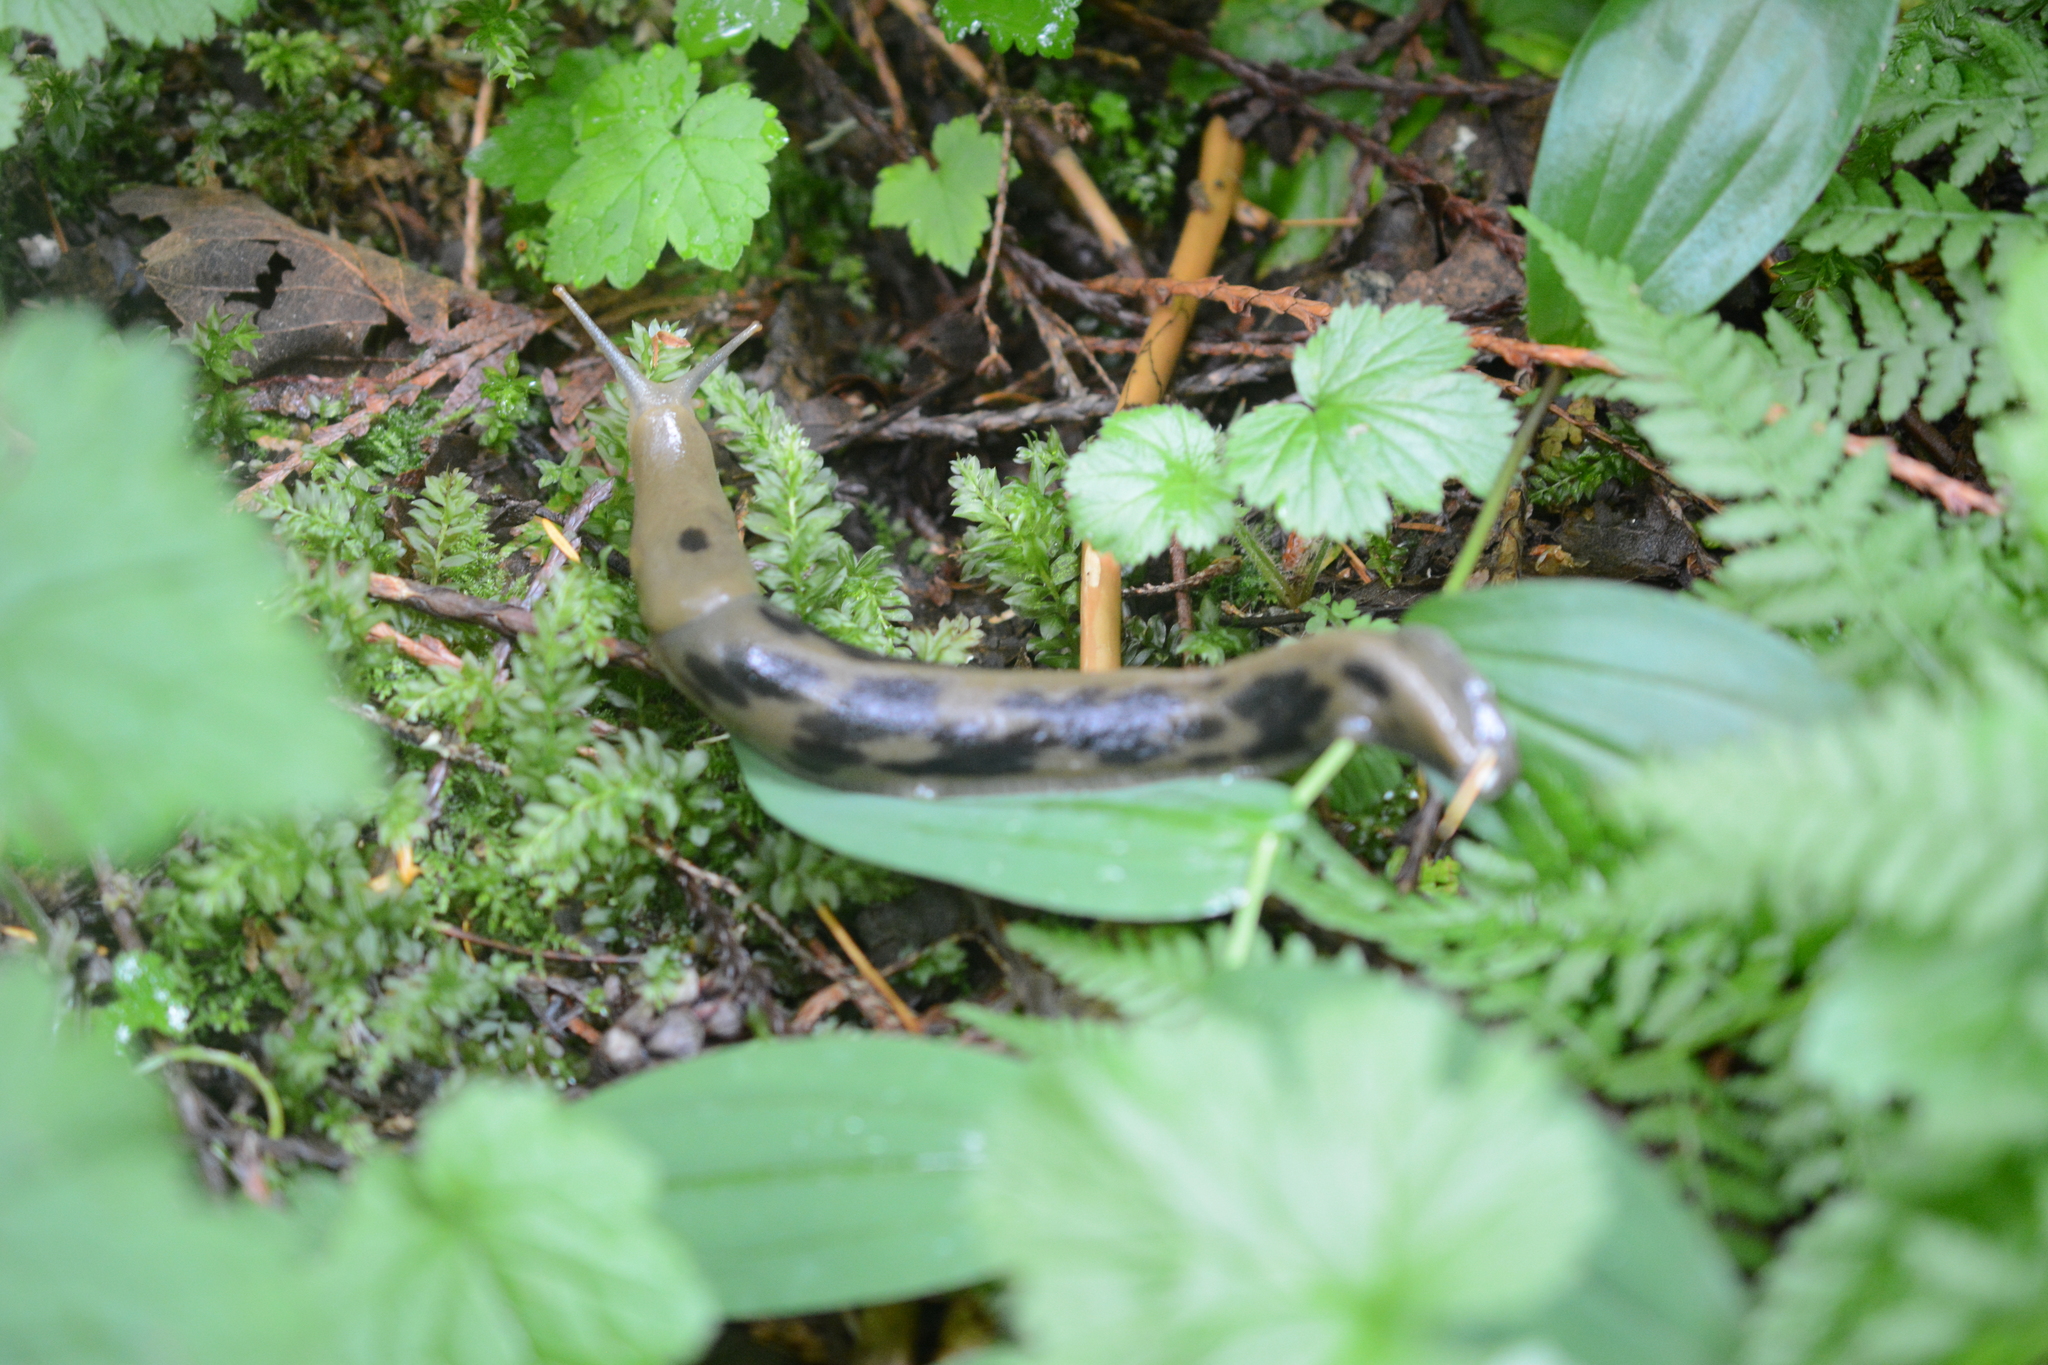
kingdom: Animalia
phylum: Mollusca
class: Gastropoda
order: Stylommatophora
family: Ariolimacidae
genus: Ariolimax
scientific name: Ariolimax columbianus
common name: Pacific banana slug
